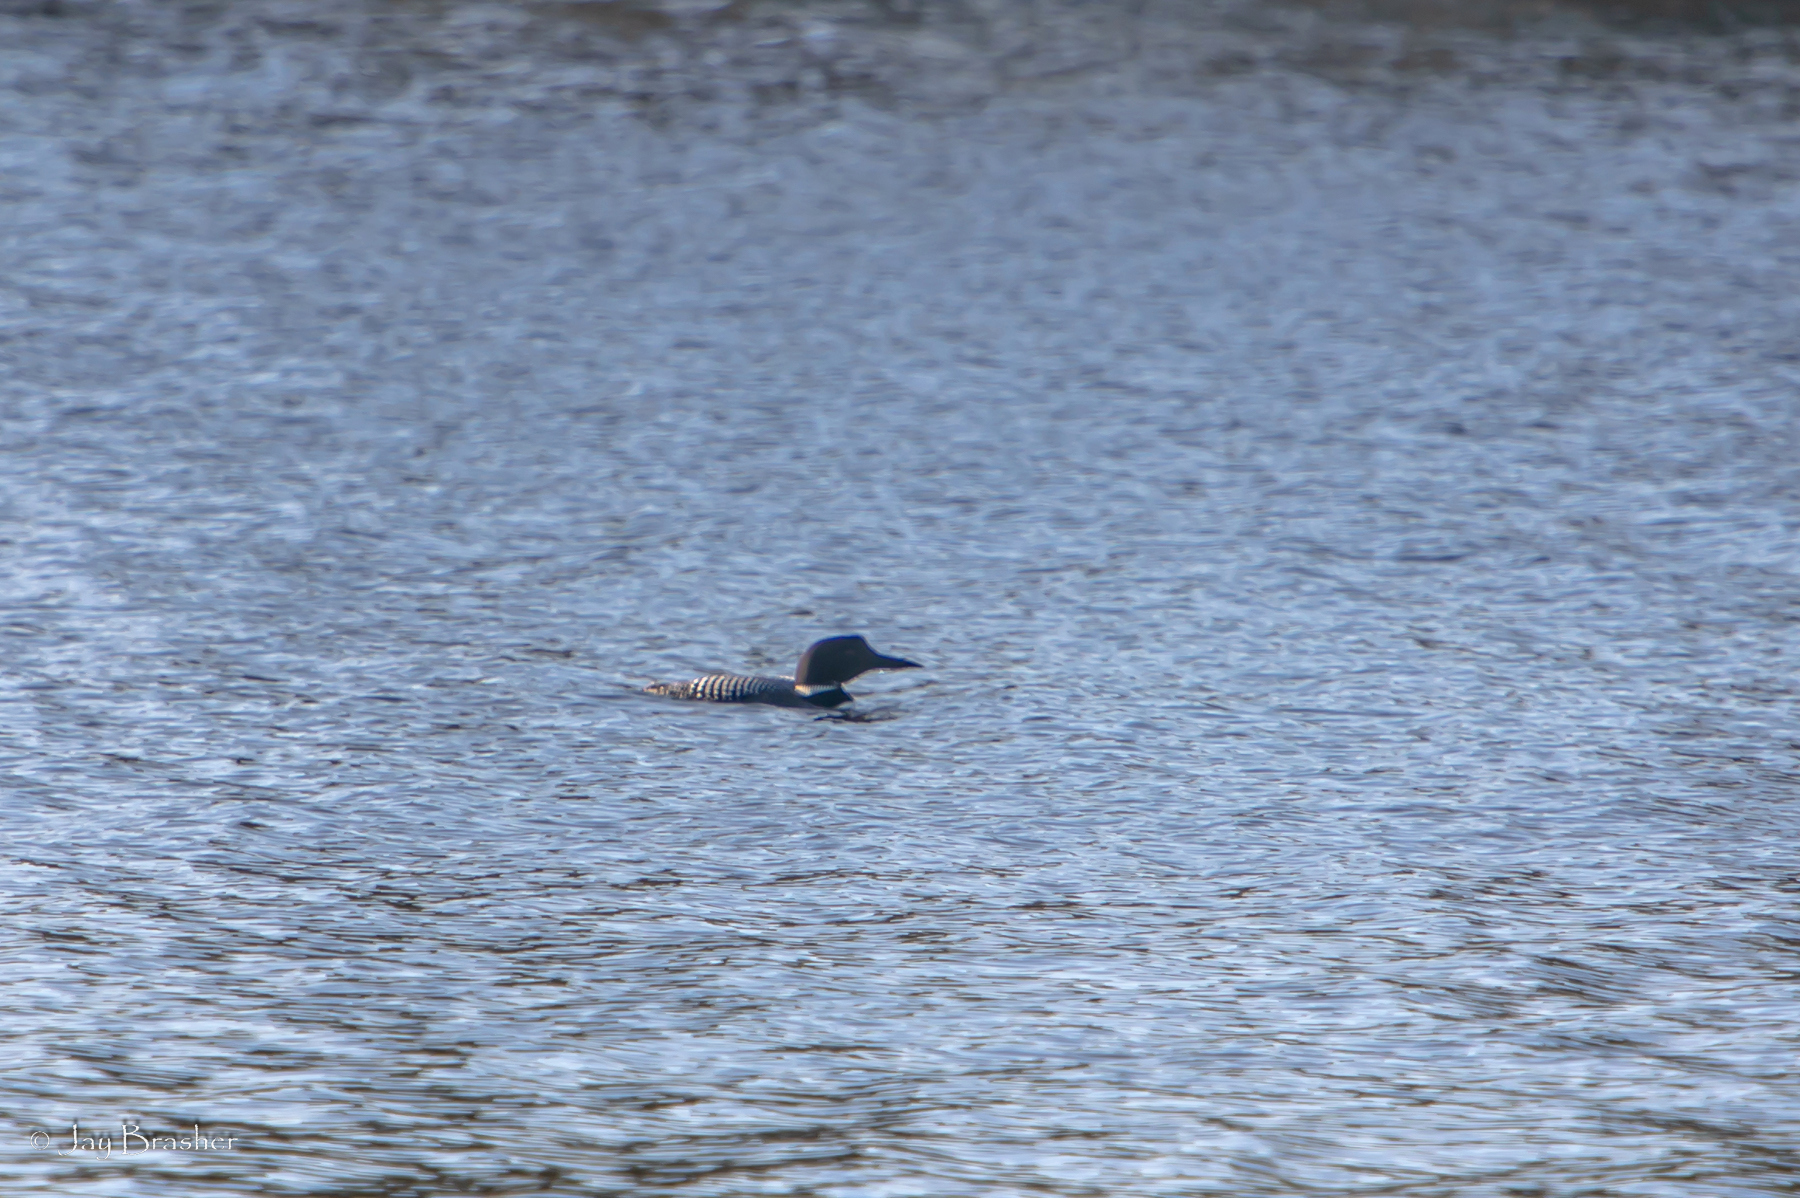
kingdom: Animalia
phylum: Chordata
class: Aves
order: Gaviiformes
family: Gaviidae
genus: Gavia
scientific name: Gavia immer
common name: Common loon
